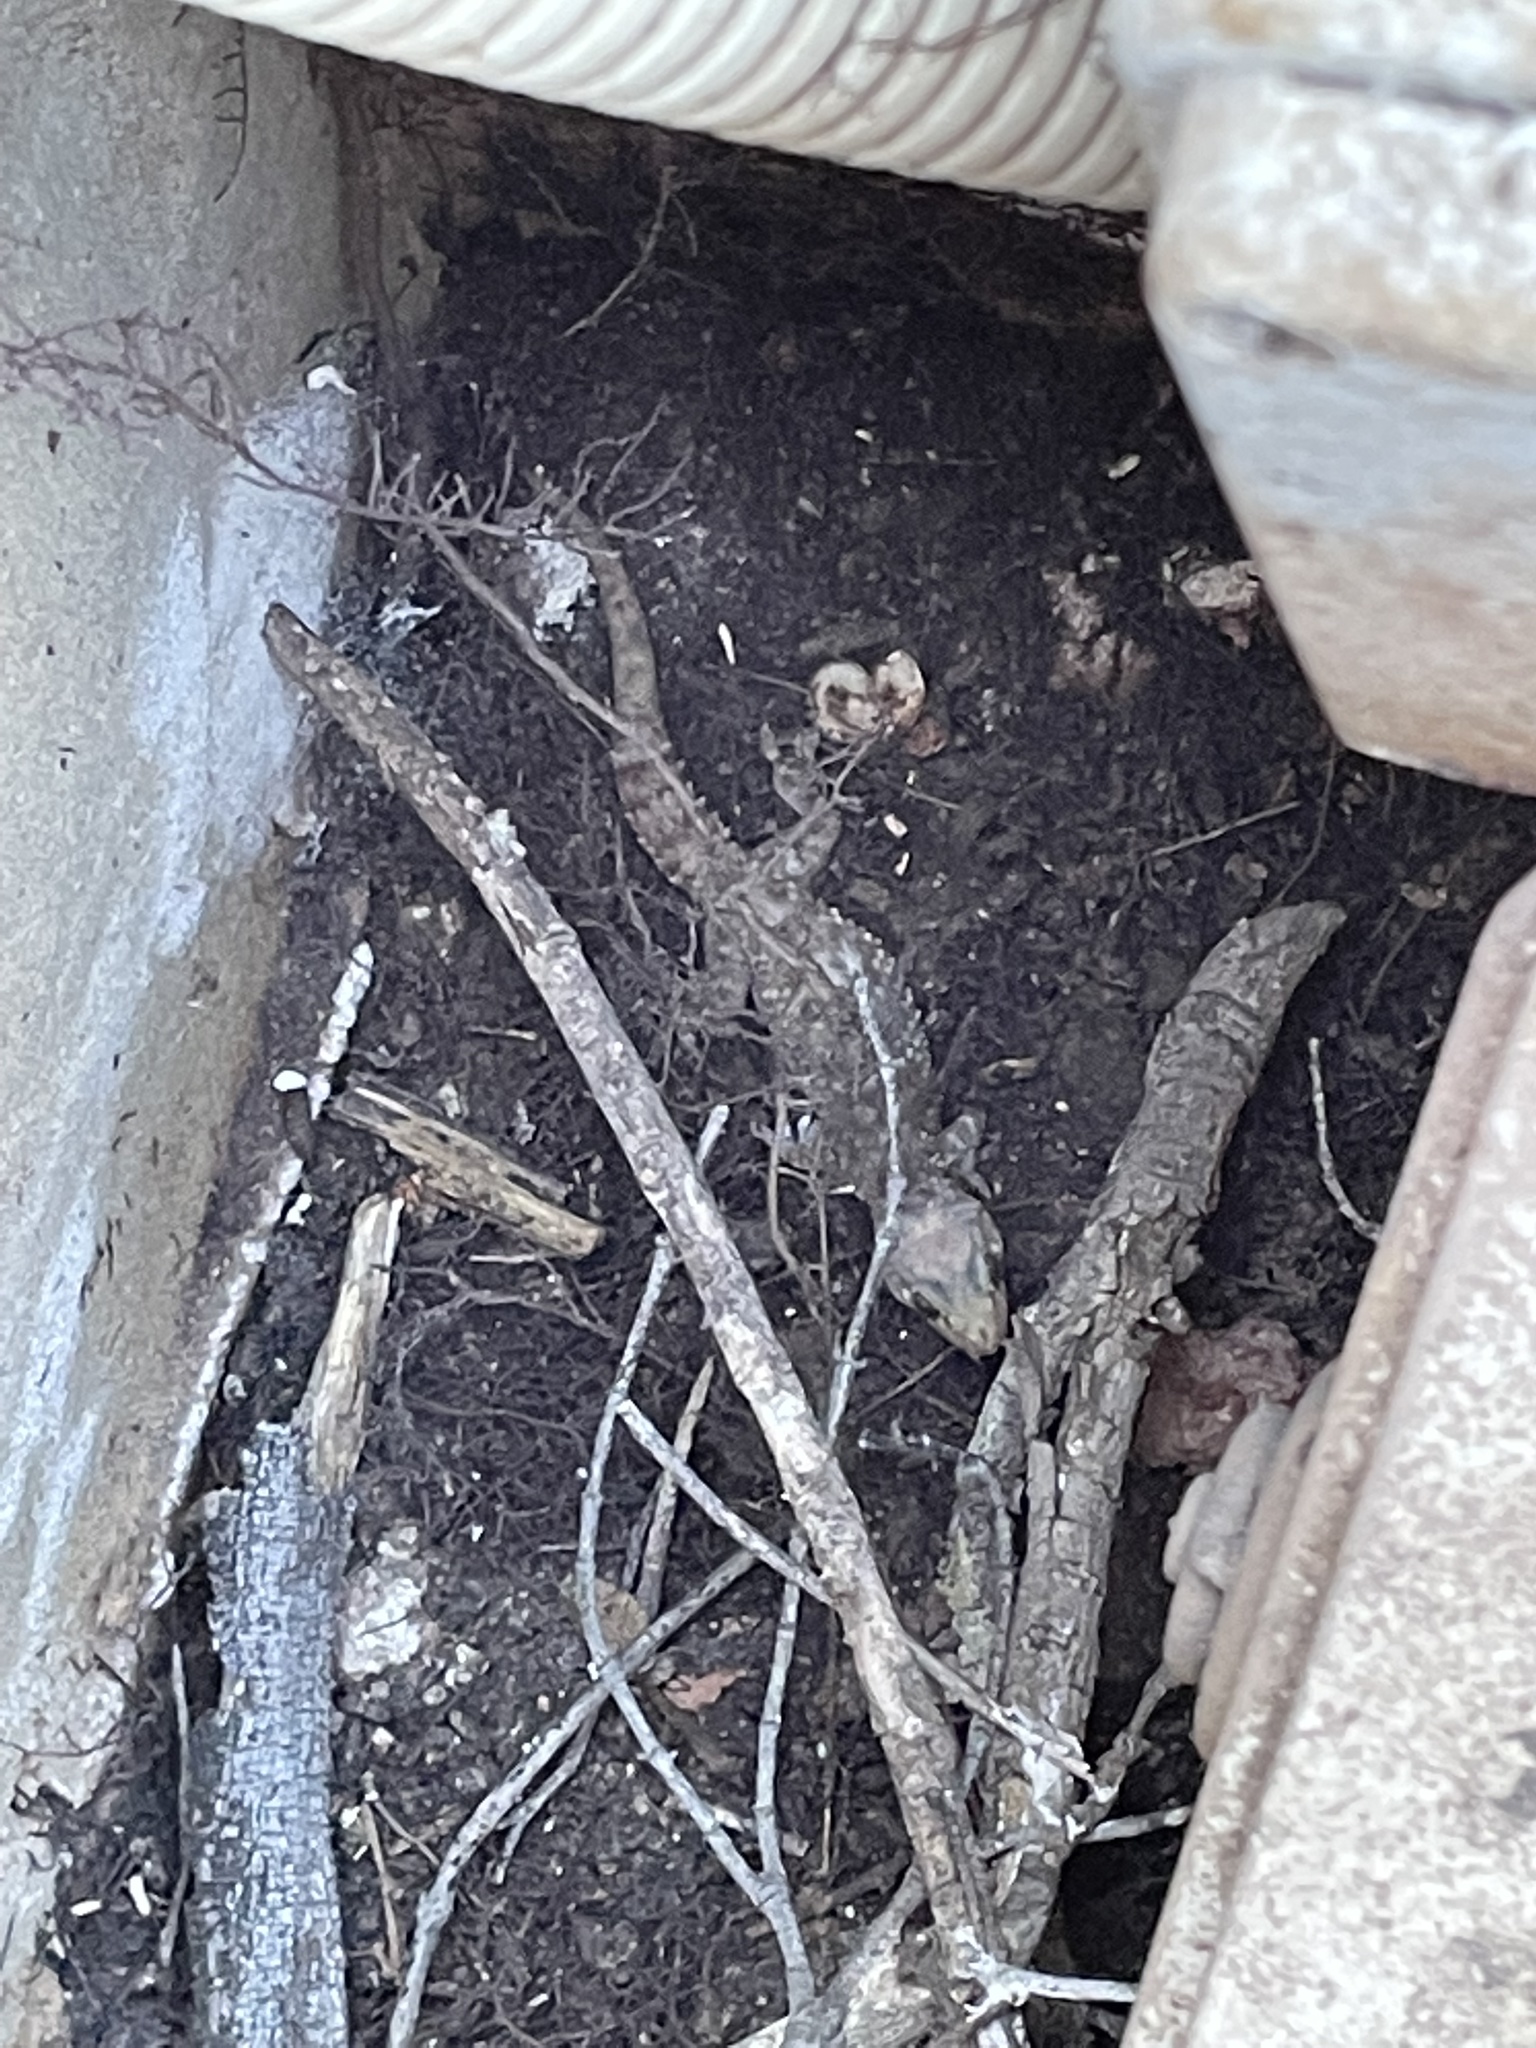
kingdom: Animalia
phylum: Chordata
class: Squamata
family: Gekkonidae
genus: Hemidactylus
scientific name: Hemidactylus turcicus
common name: Turkish gecko
